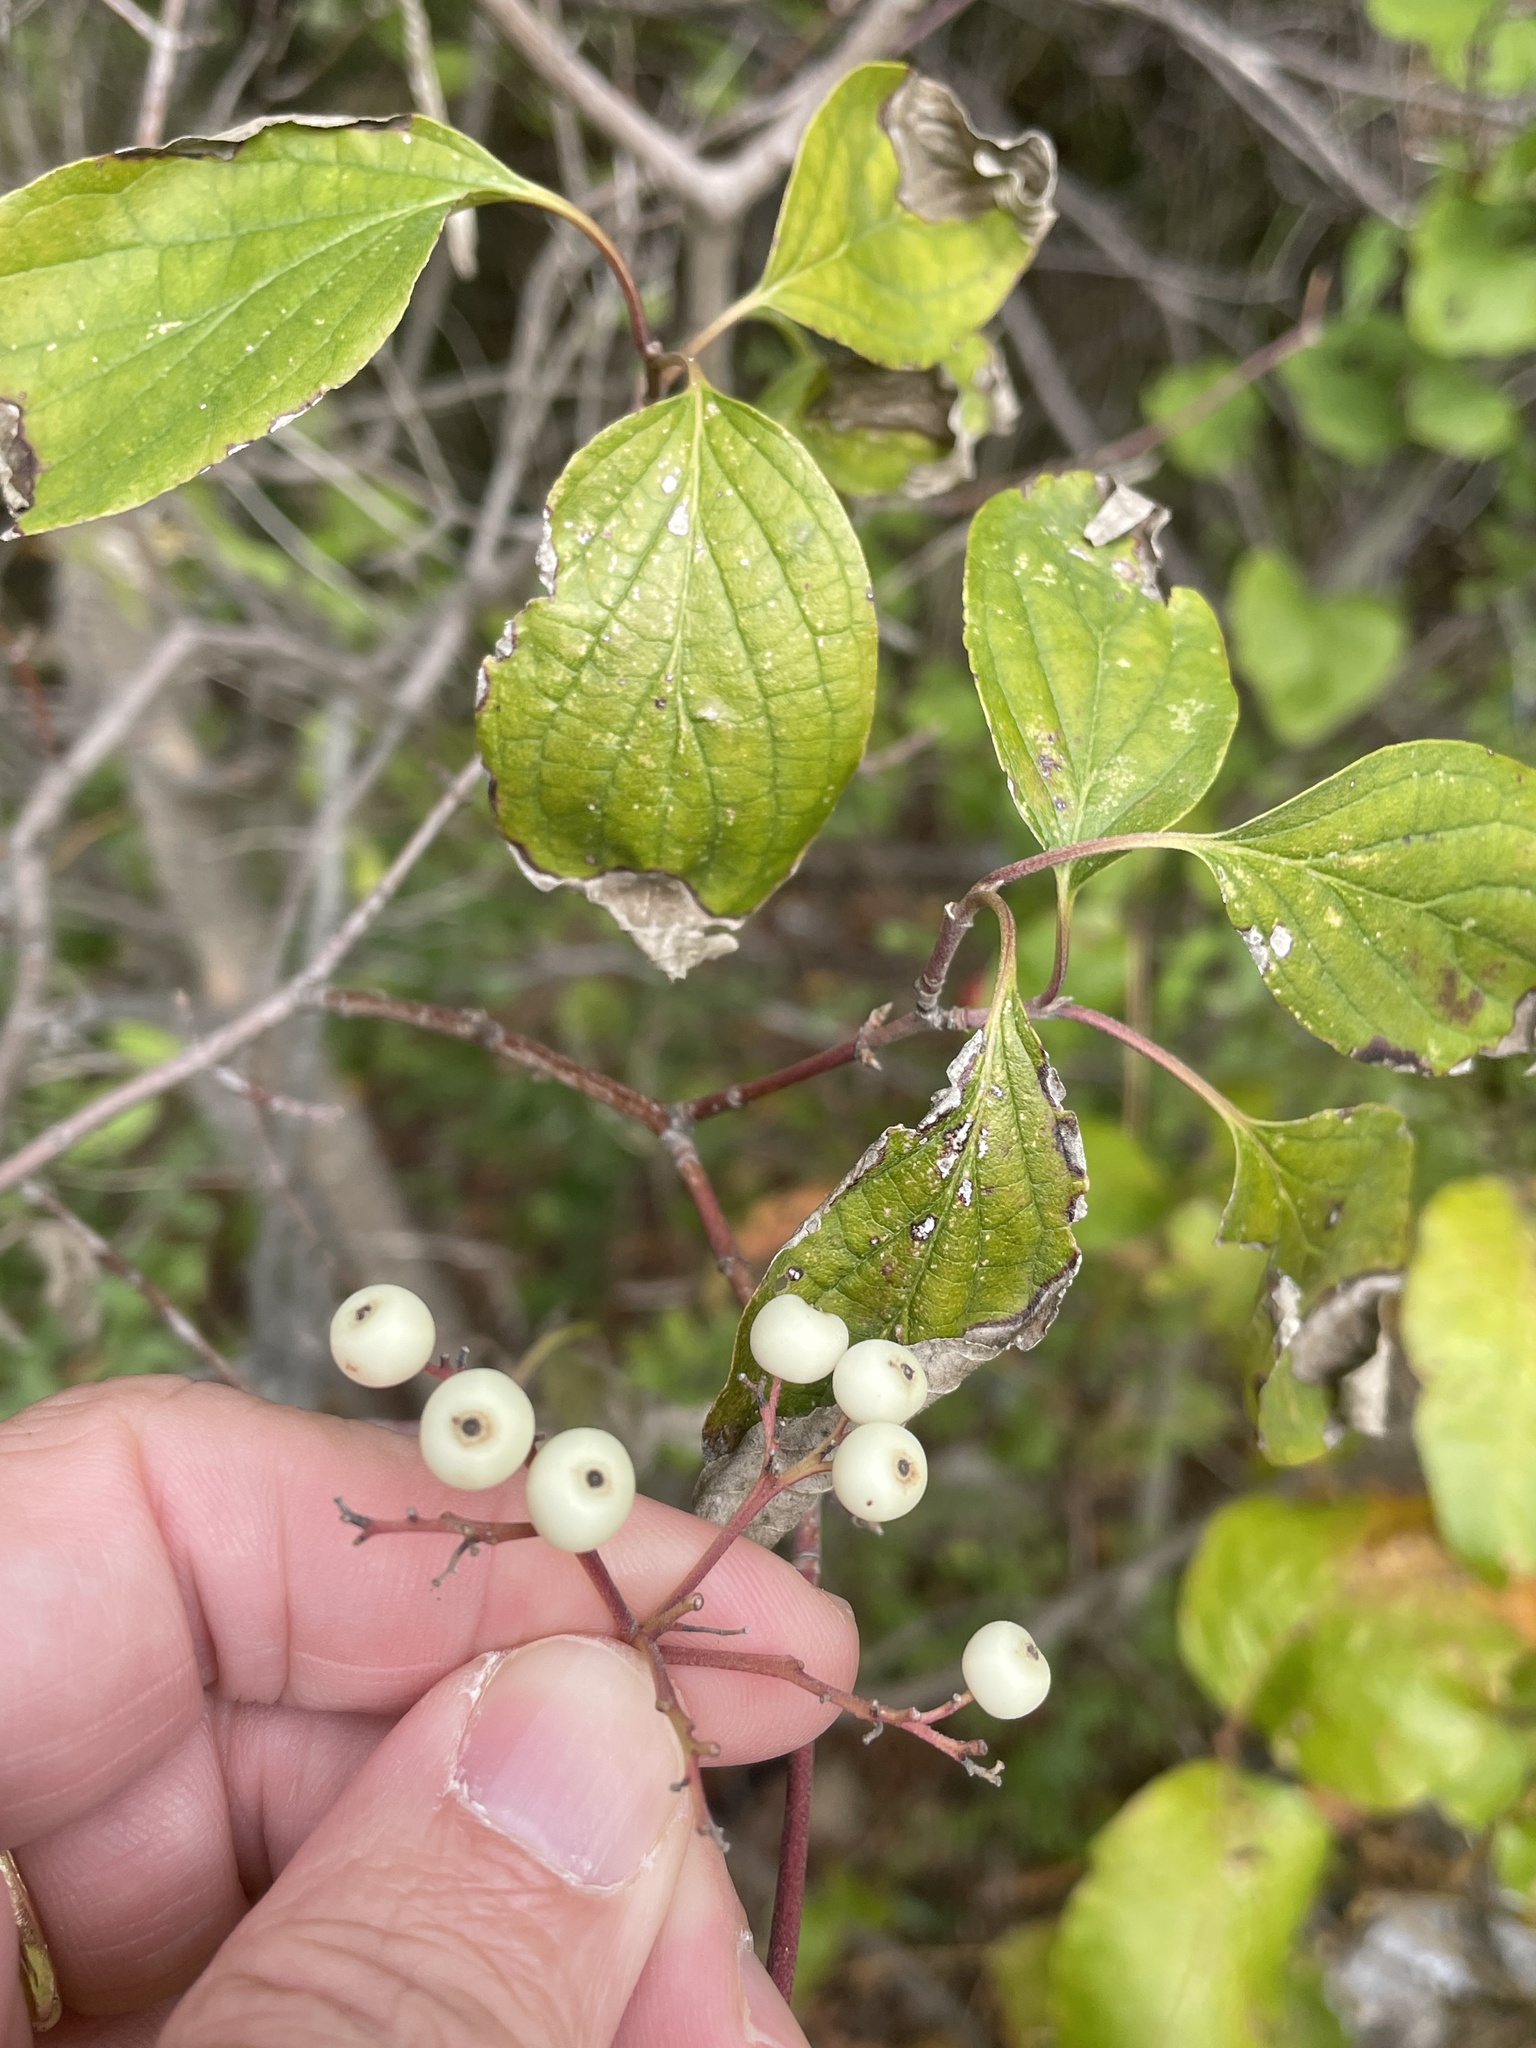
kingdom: Plantae
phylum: Tracheophyta
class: Magnoliopsida
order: Cornales
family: Cornaceae
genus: Cornus
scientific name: Cornus drummondii
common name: Rough-leaf dogwood
